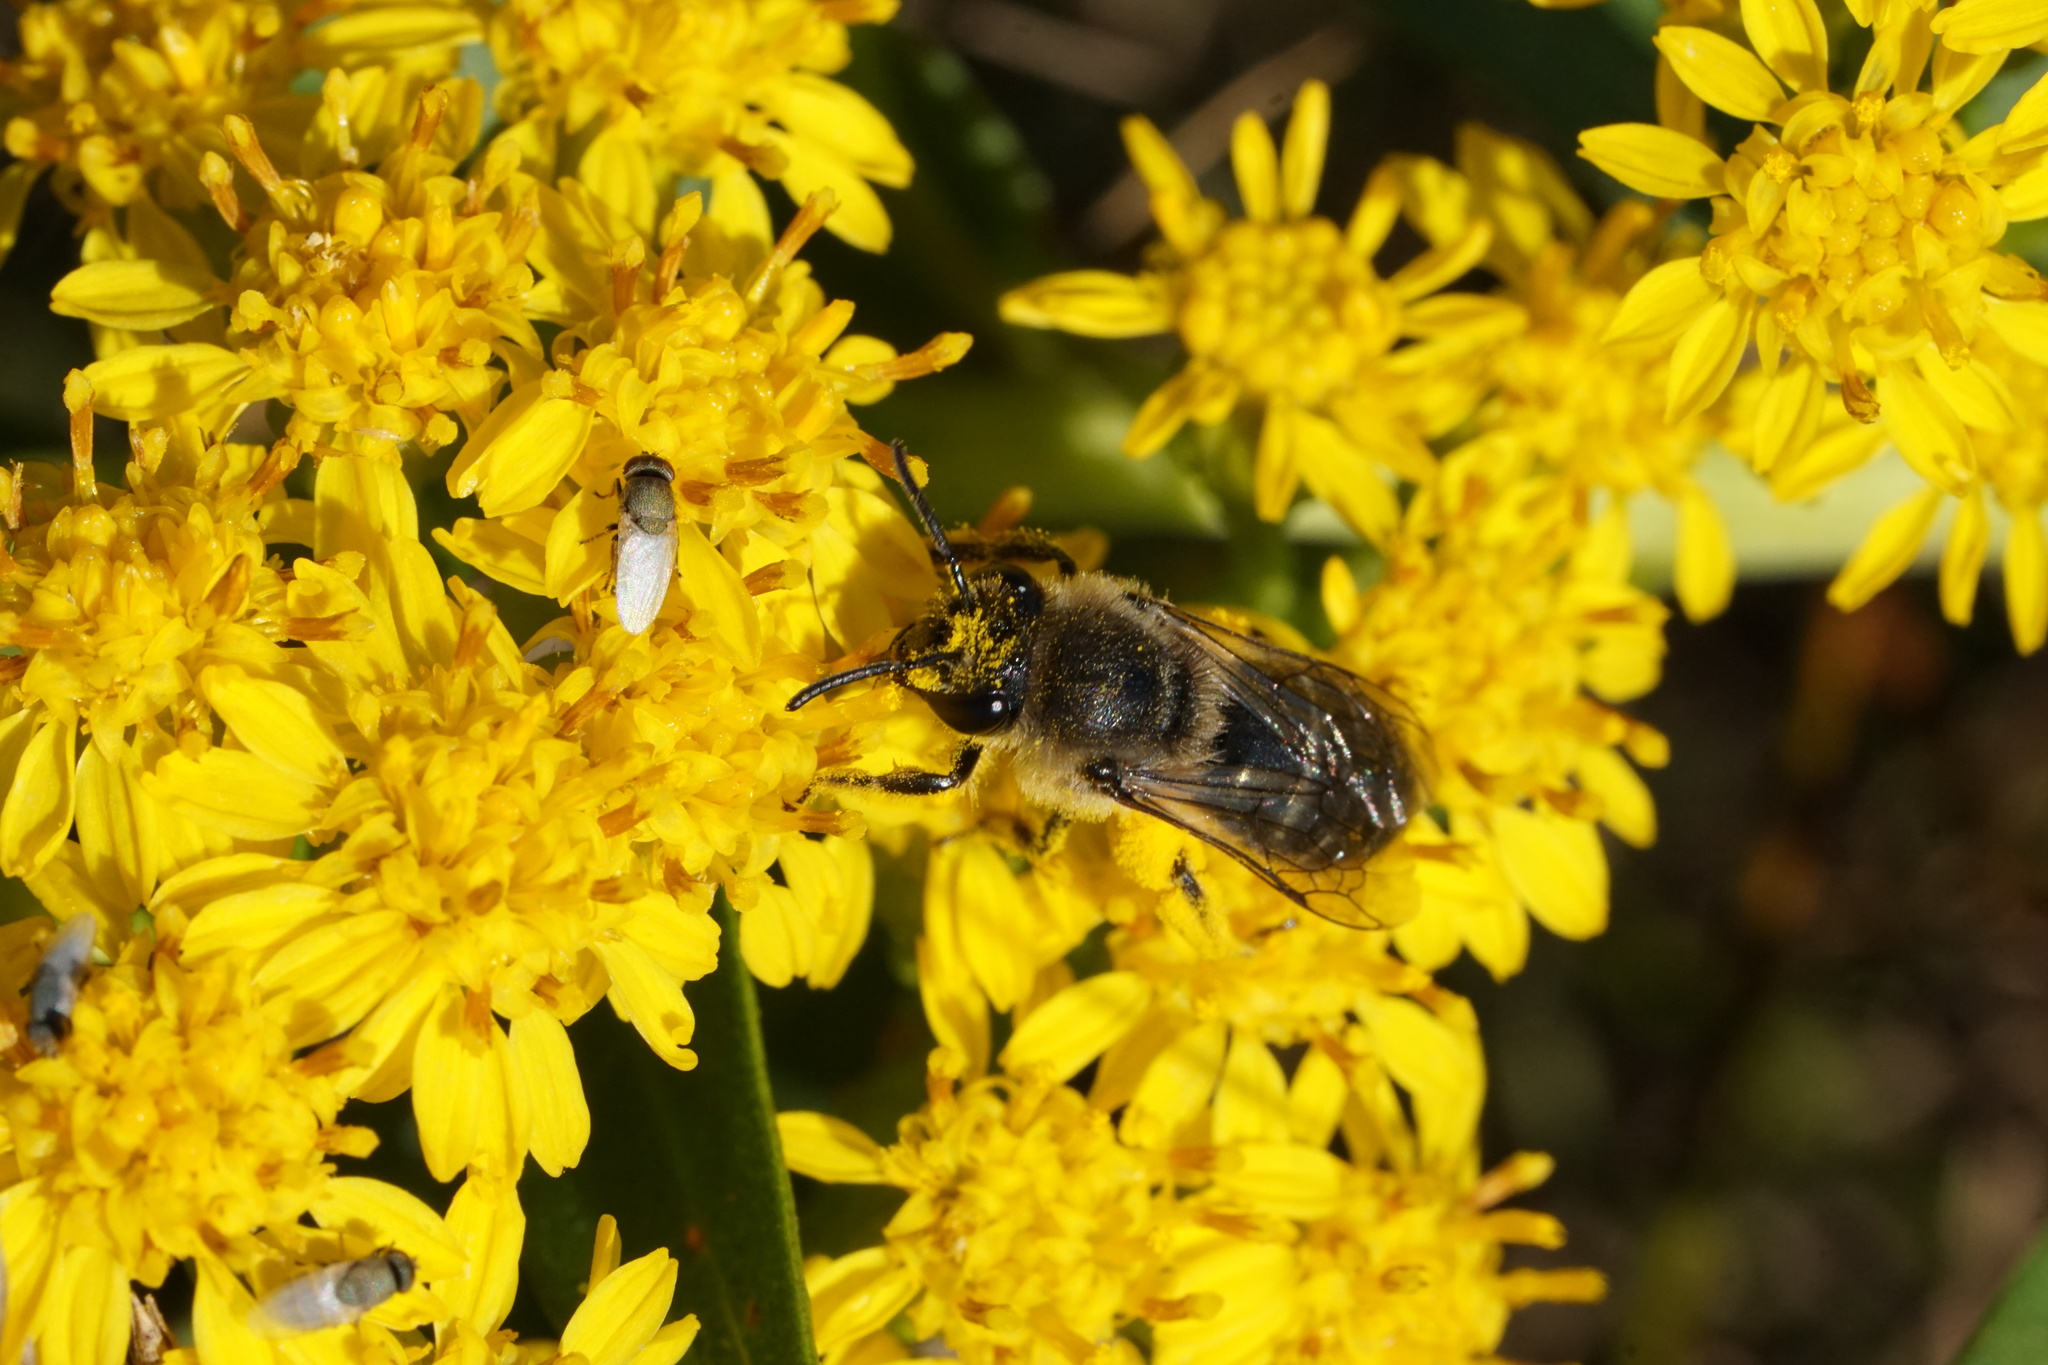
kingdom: Animalia
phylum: Arthropoda
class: Insecta
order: Hymenoptera
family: Colletidae
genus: Colletes
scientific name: Colletes compactus
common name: Aster cellophane bee
